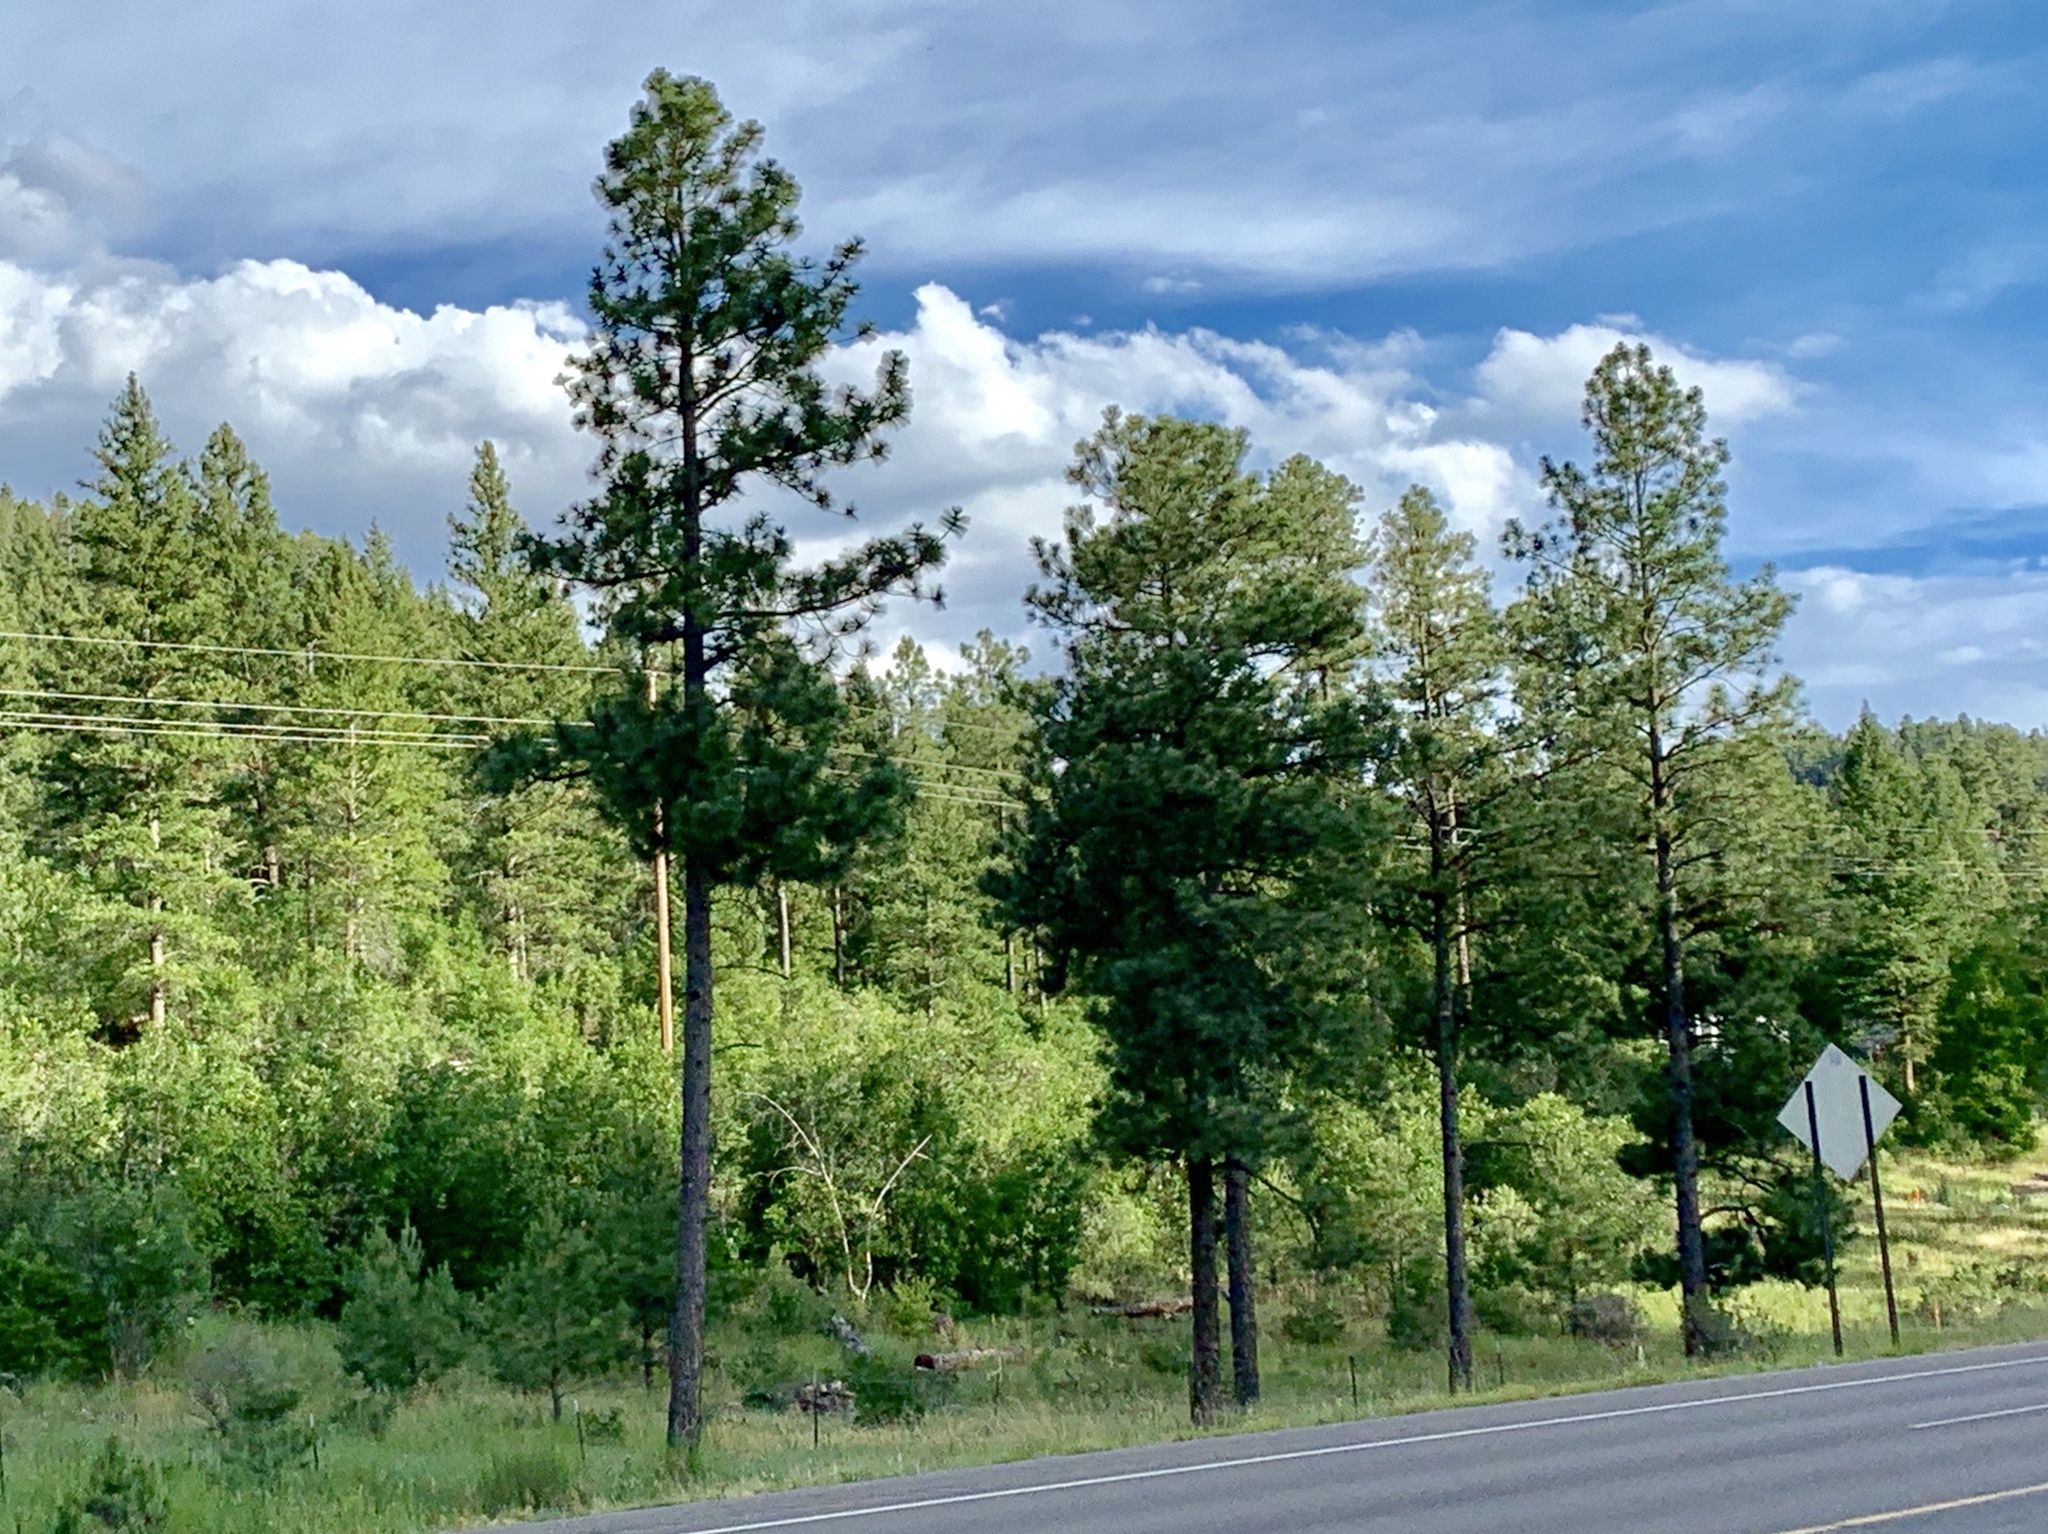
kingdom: Plantae
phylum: Tracheophyta
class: Pinopsida
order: Pinales
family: Pinaceae
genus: Pinus
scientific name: Pinus ponderosa
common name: Western yellow-pine
